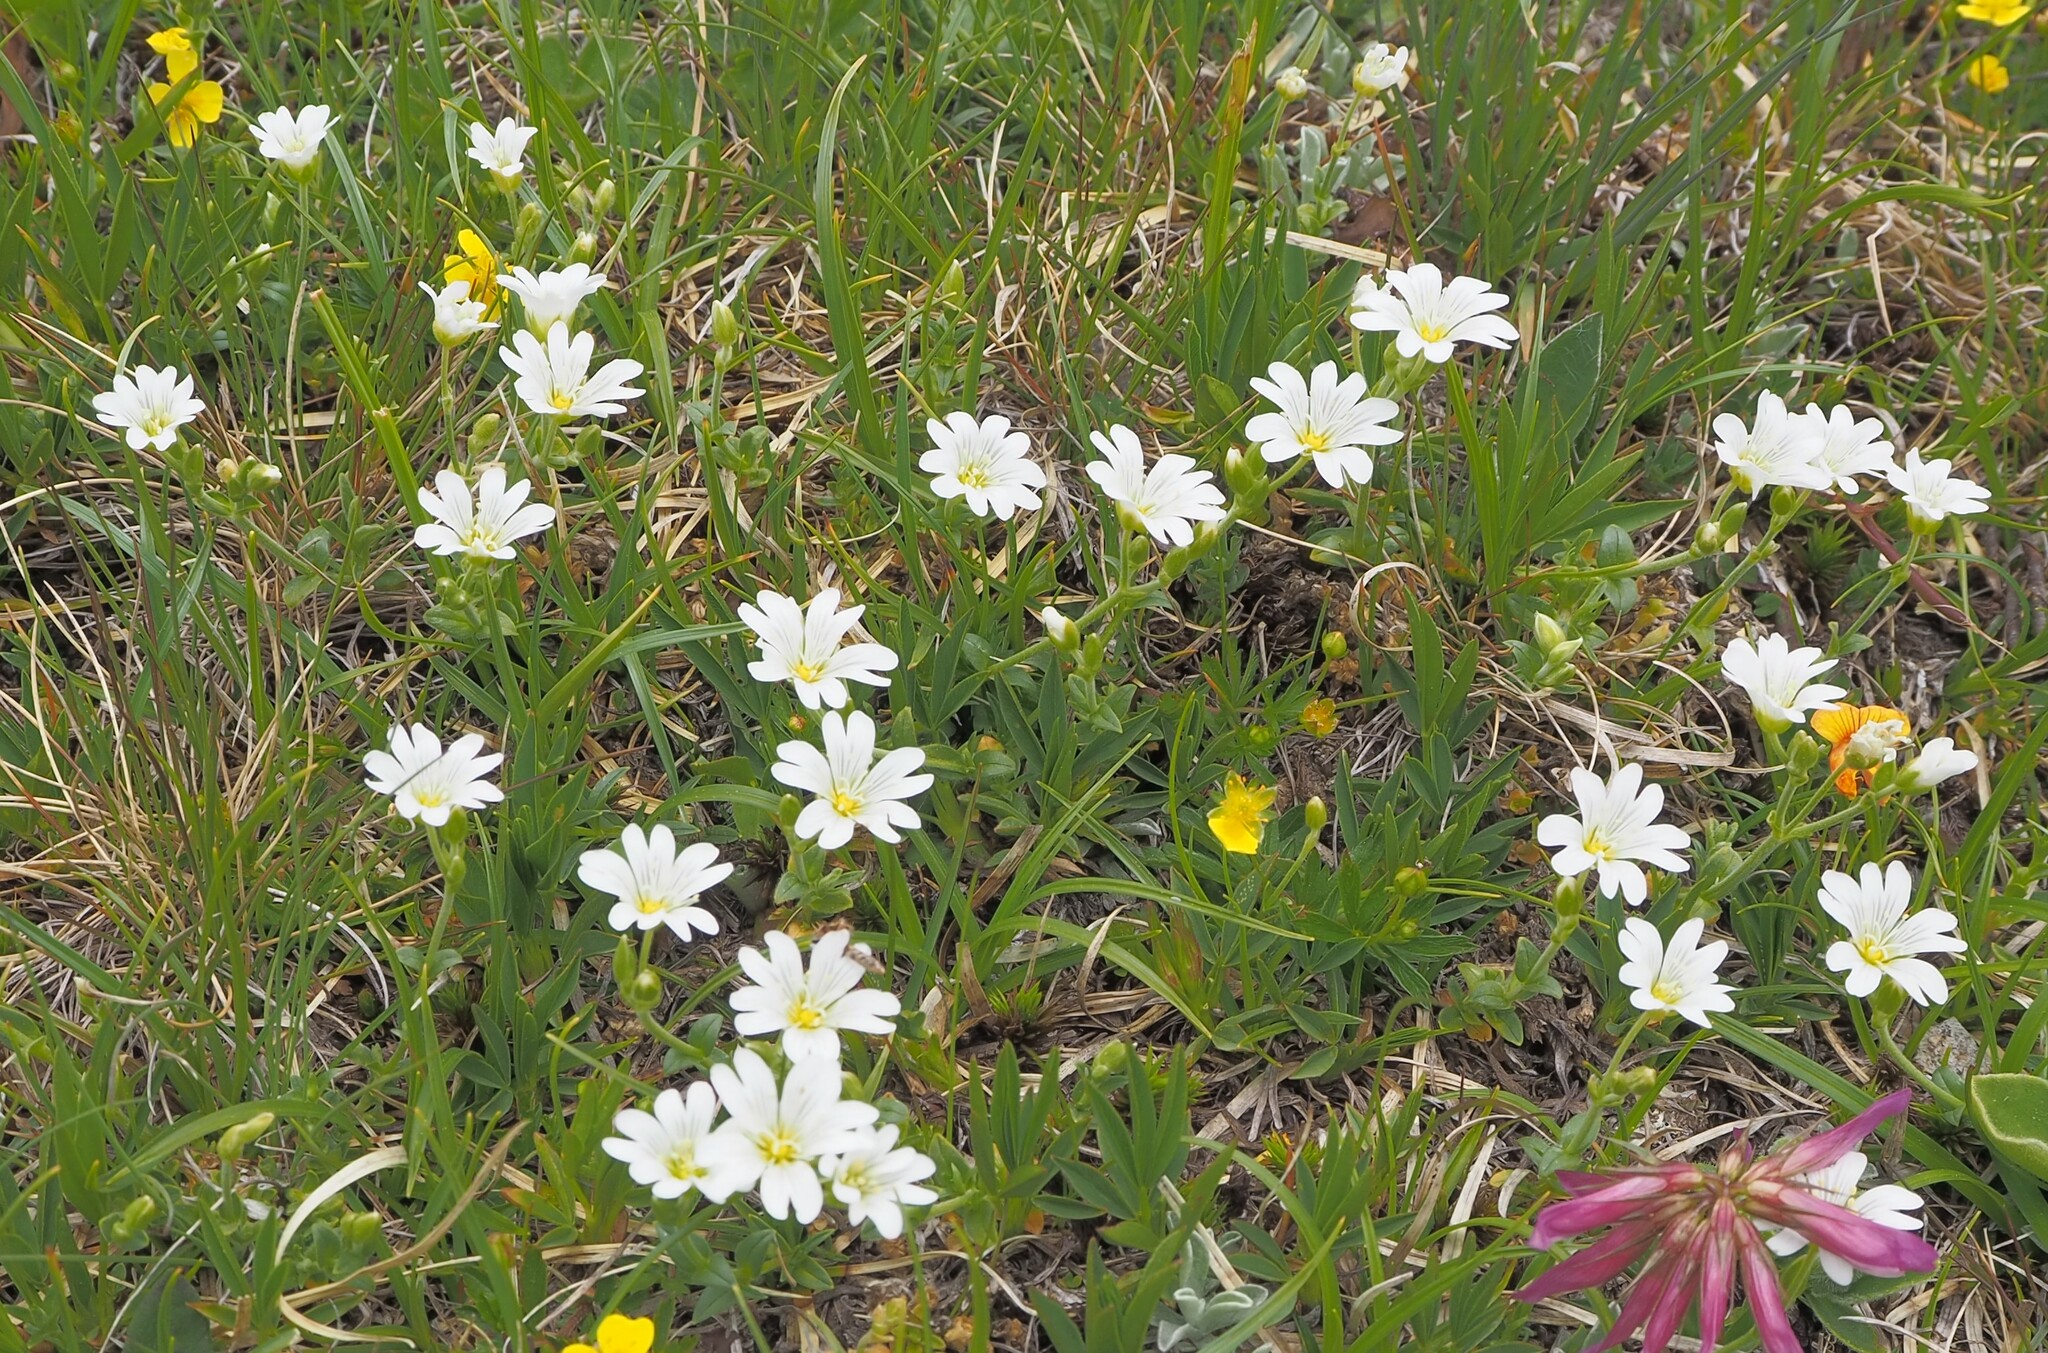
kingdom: Plantae
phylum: Tracheophyta
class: Magnoliopsida
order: Caryophyllales
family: Caryophyllaceae
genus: Cerastium
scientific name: Cerastium arvense
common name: Field mouse-ear
